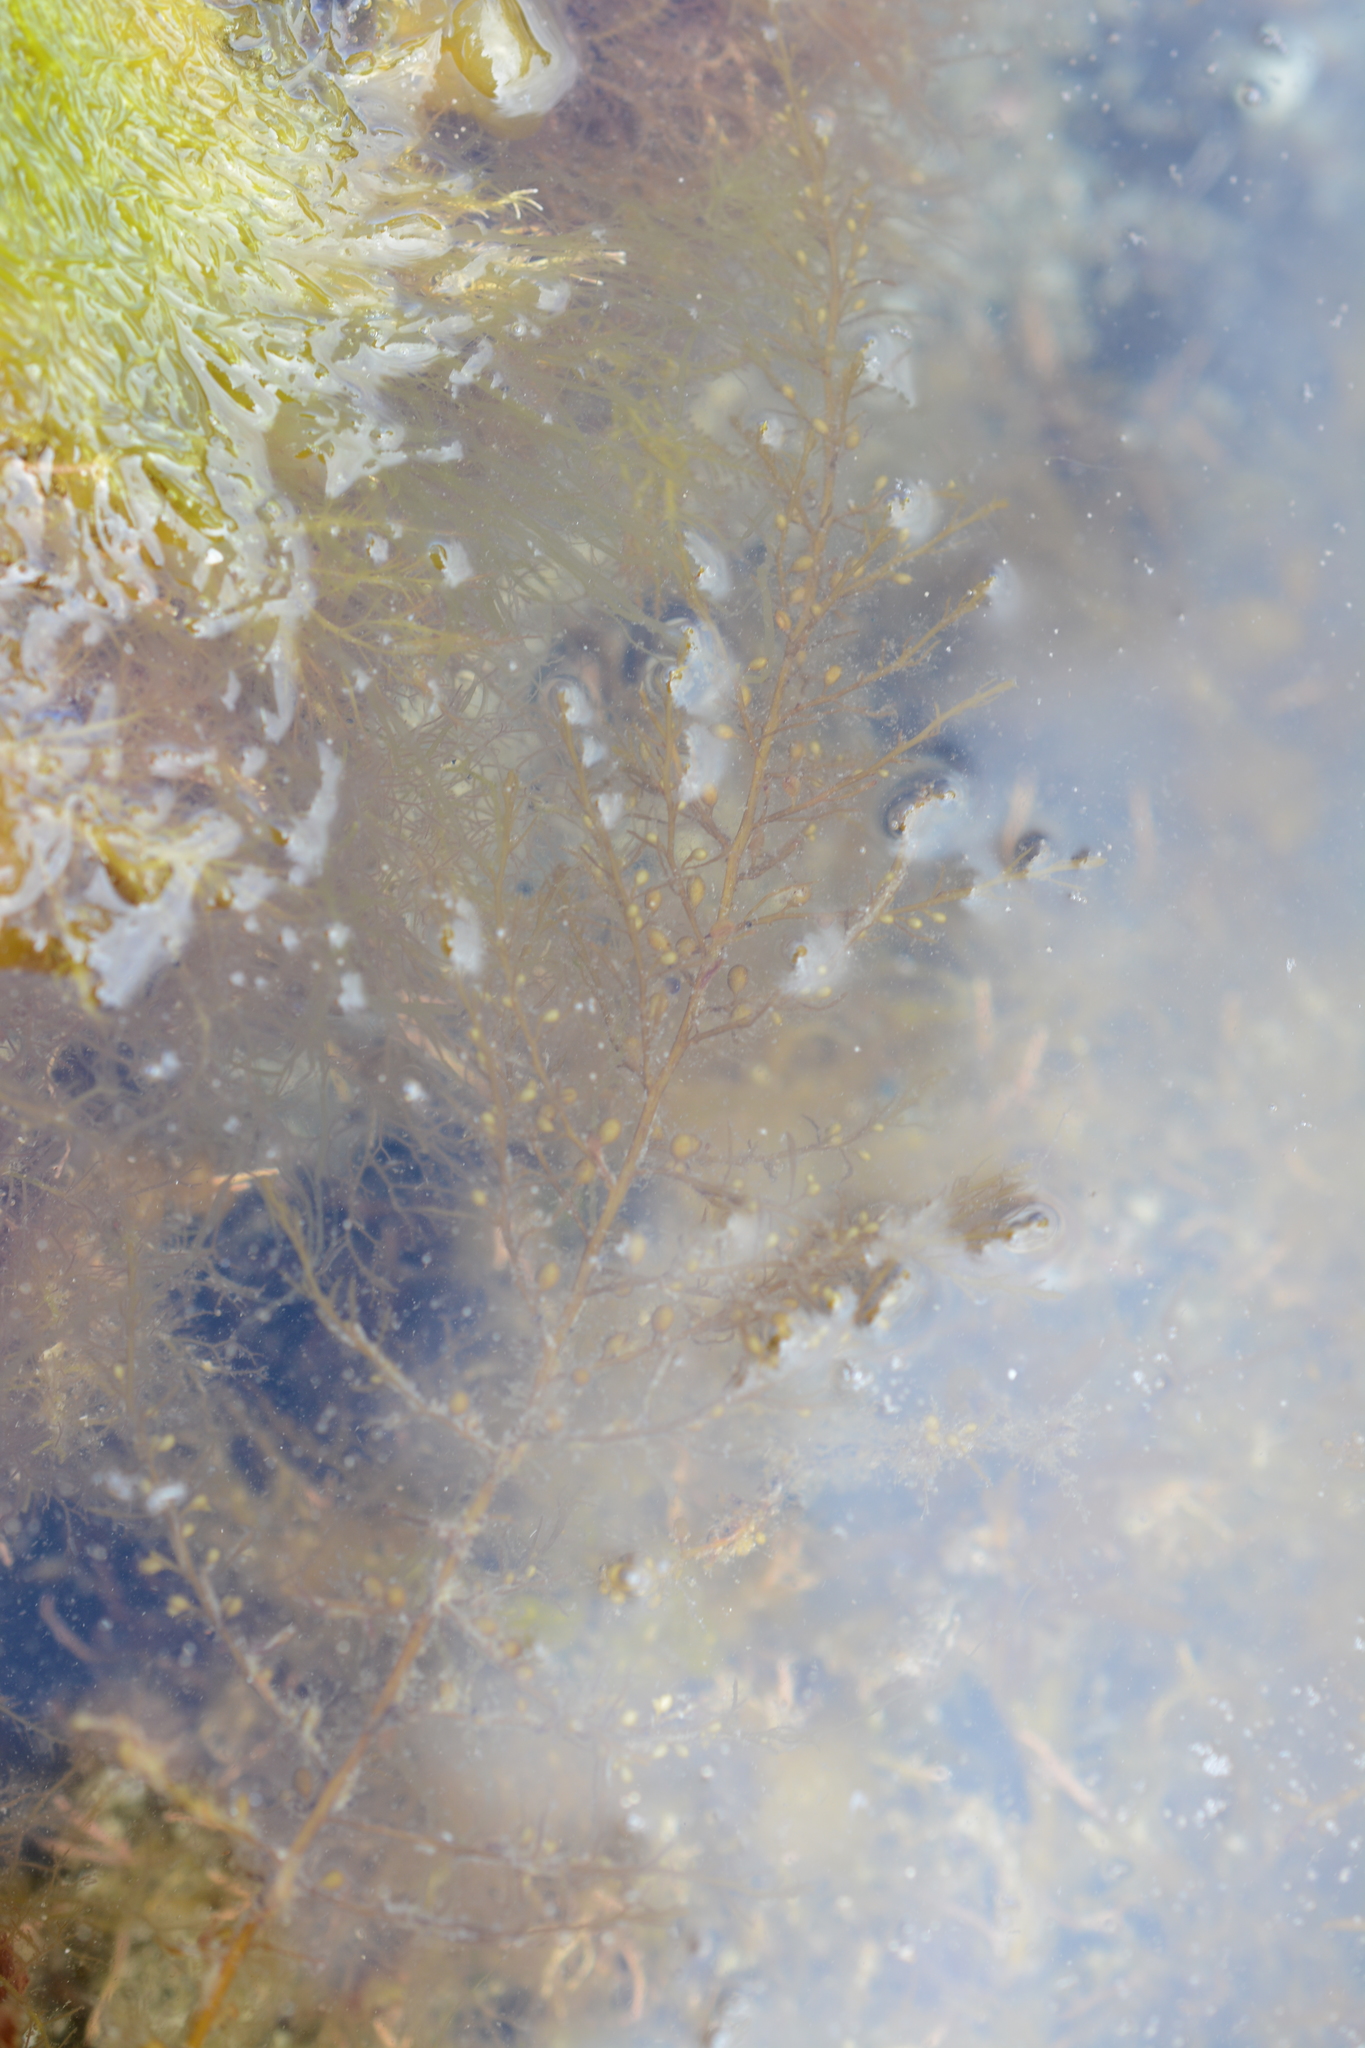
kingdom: Chromista
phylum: Ochrophyta
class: Phaeophyceae
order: Fucales
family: Sargassaceae
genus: Sargassum
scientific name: Sargassum muticum
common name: Japweed
